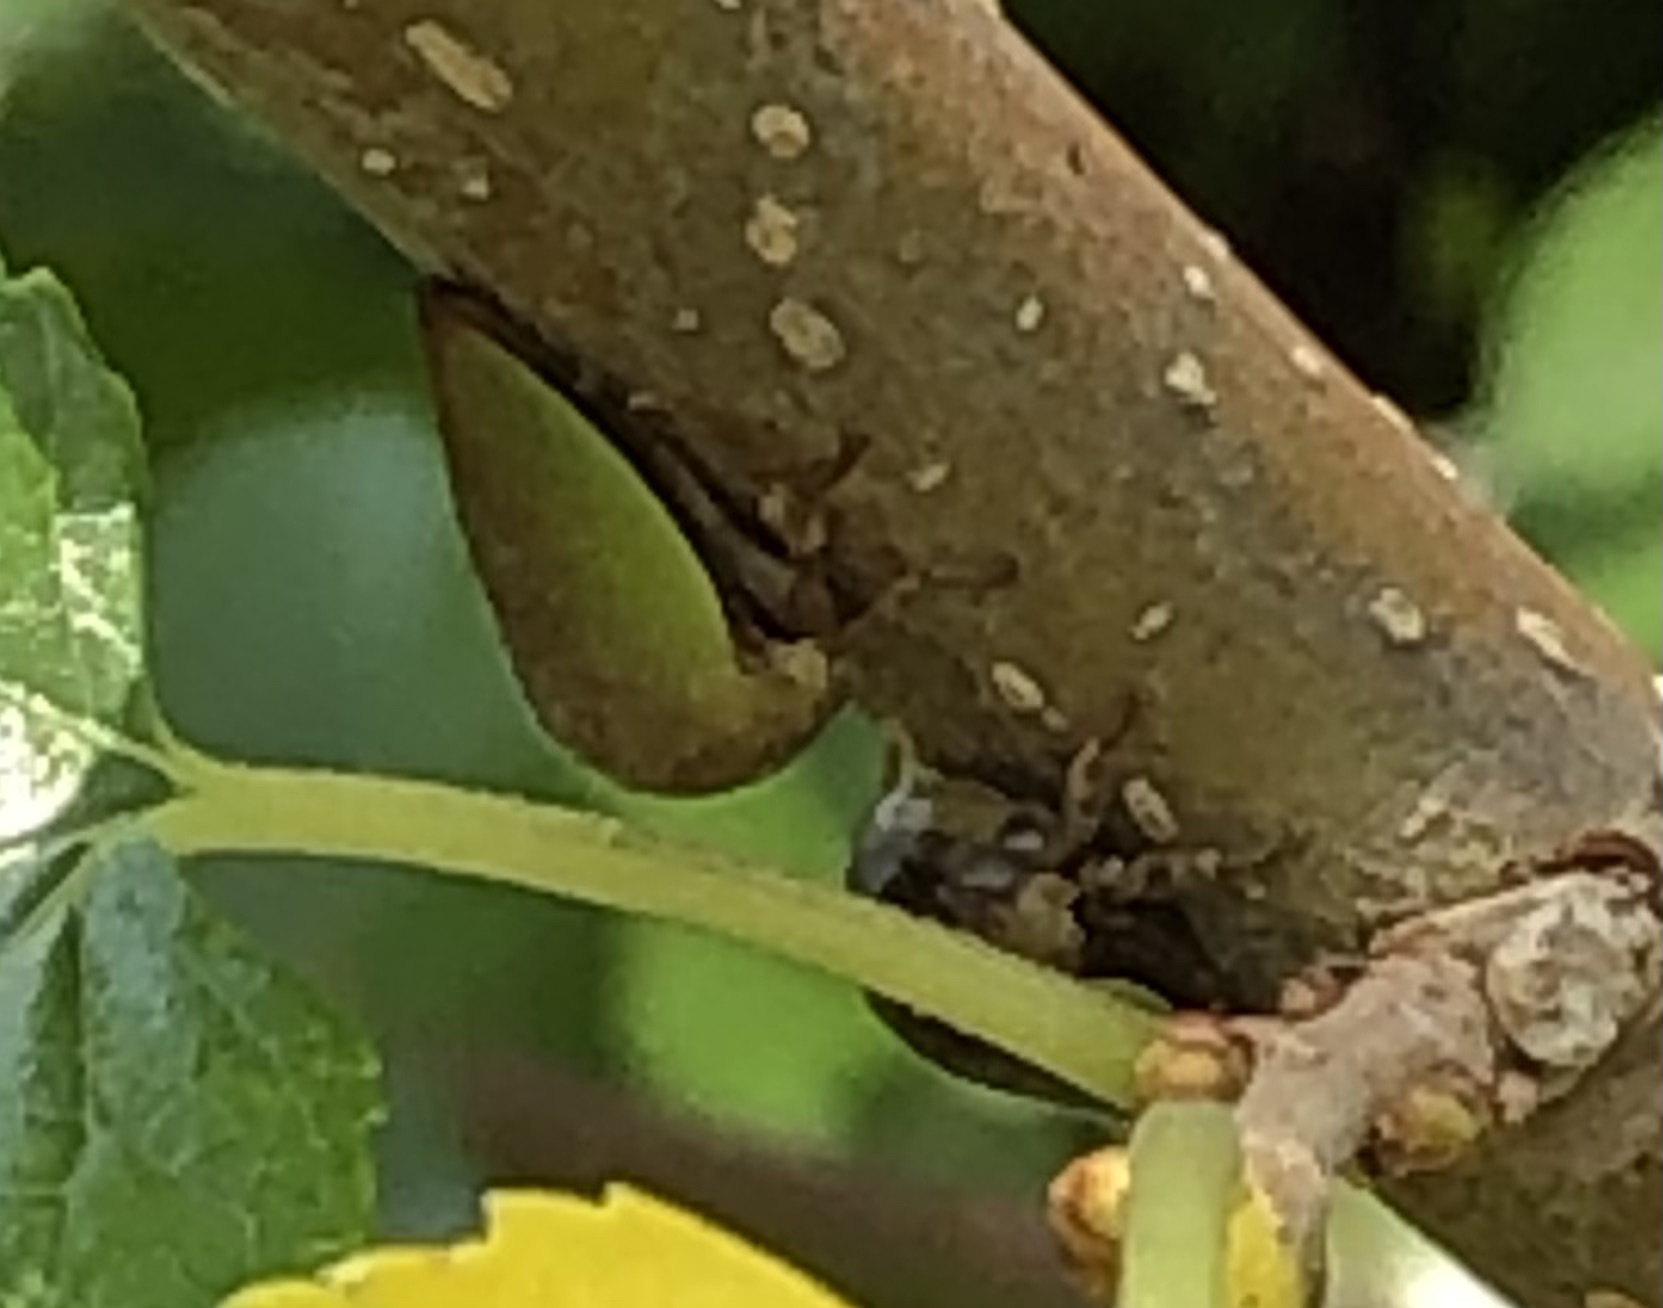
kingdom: Animalia
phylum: Arthropoda
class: Insecta
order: Hemiptera
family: Membracidae
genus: Hebetica
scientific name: Hebetica
